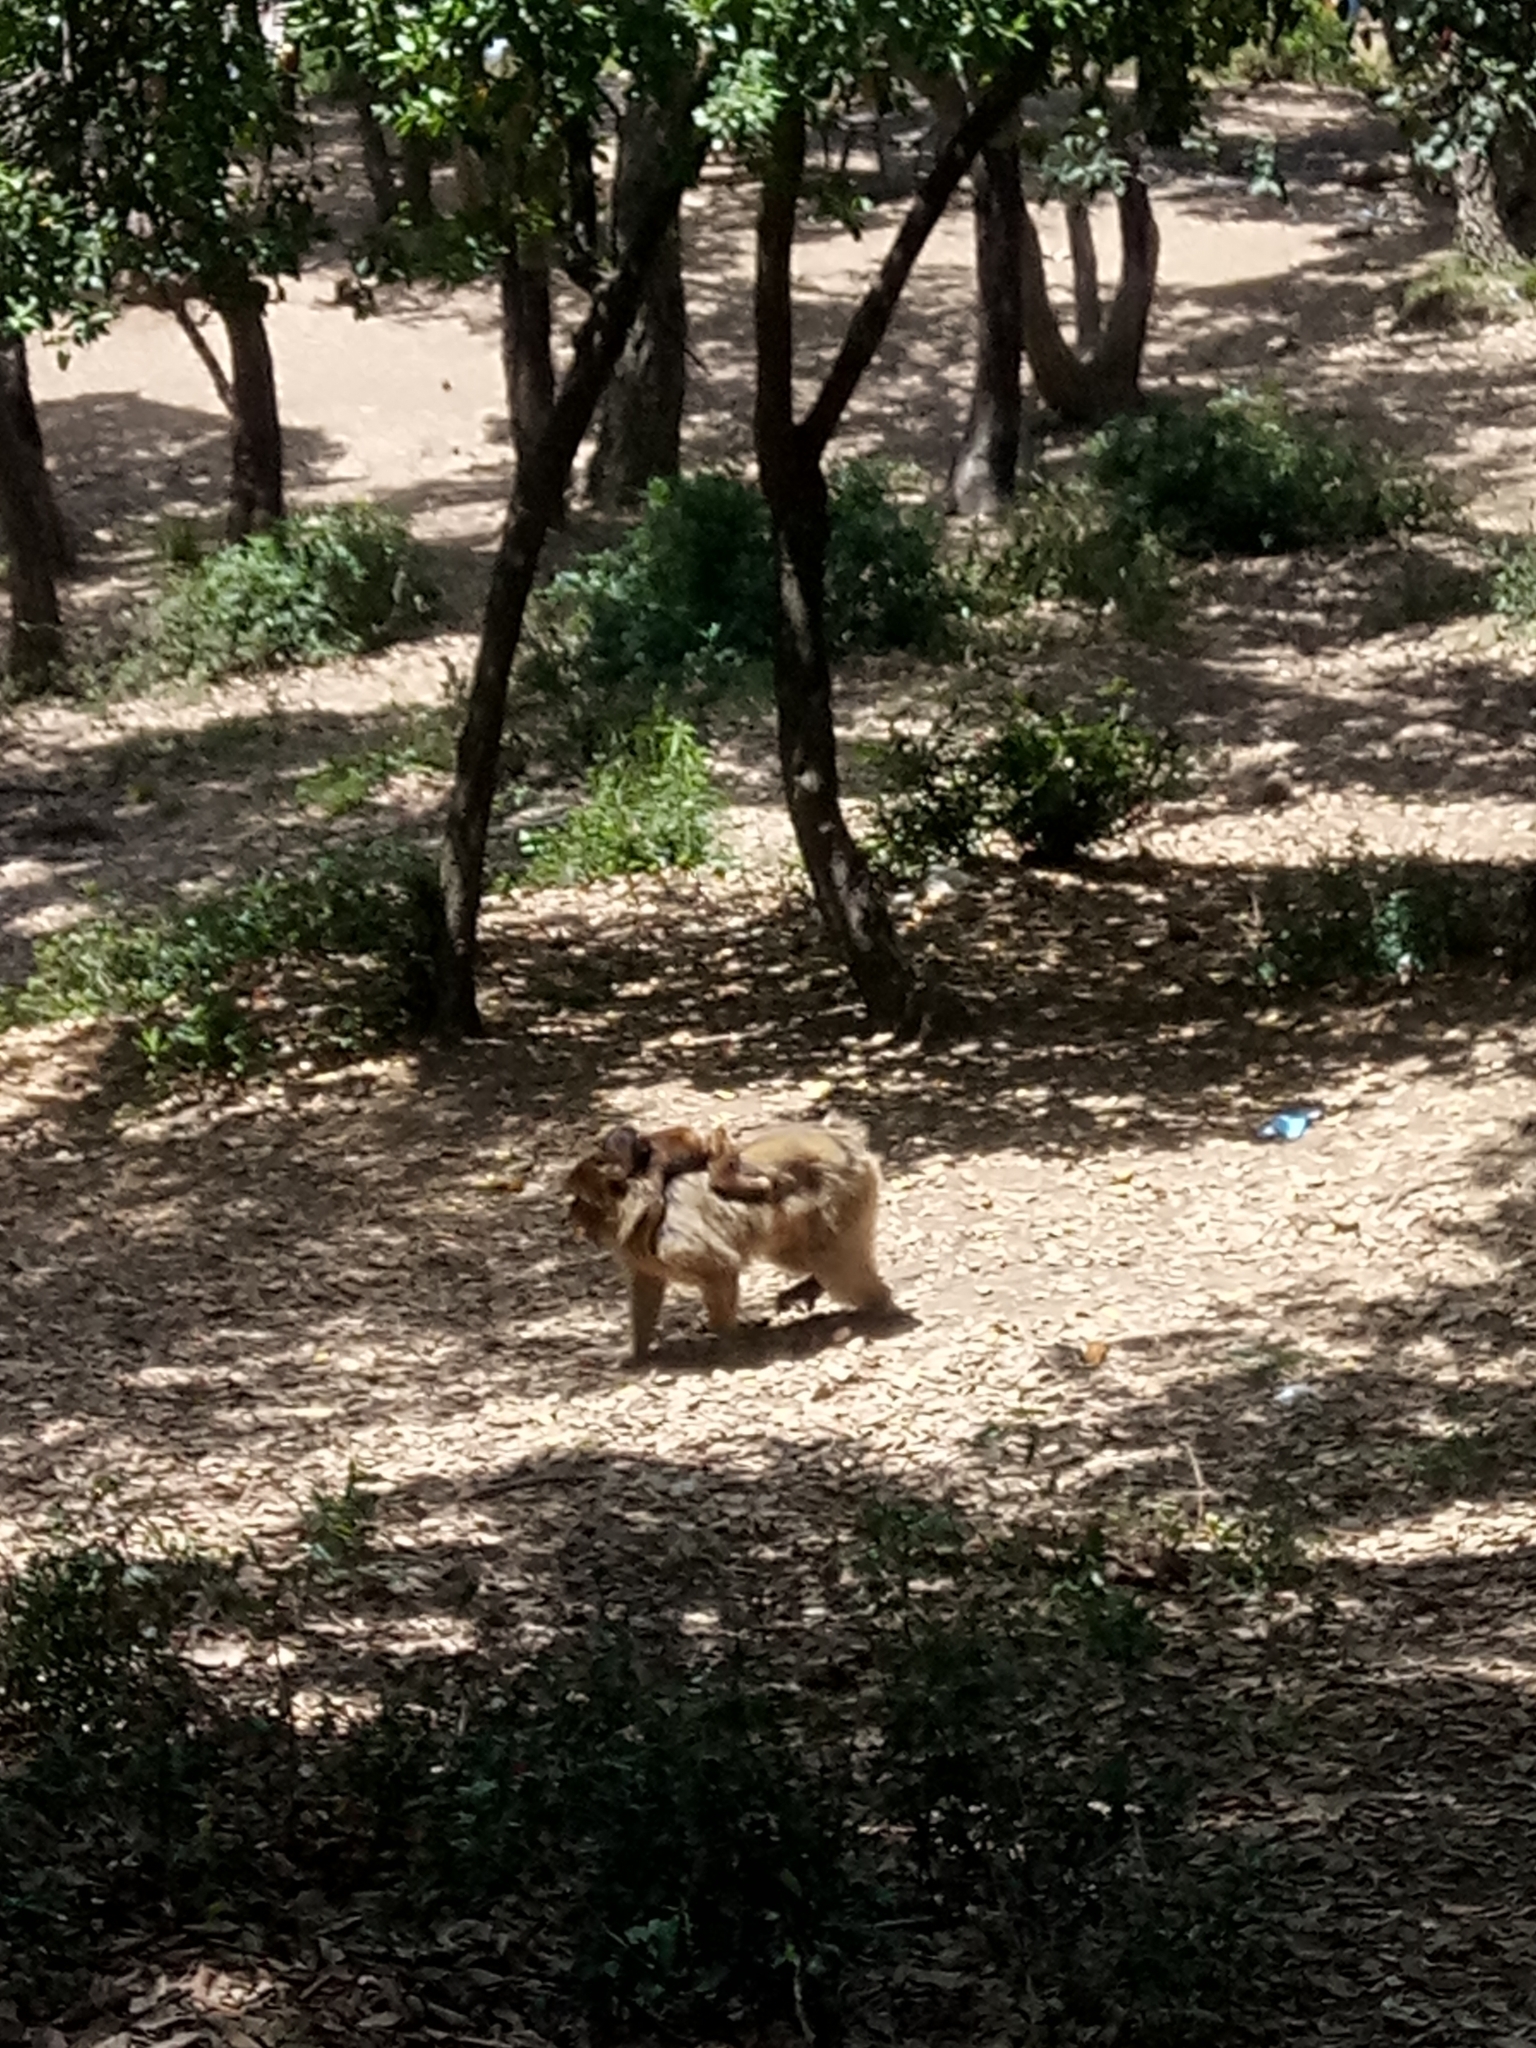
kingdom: Animalia
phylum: Chordata
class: Mammalia
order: Primates
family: Cercopithecidae
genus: Macaca
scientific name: Macaca sylvanus
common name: Barbary macaque
